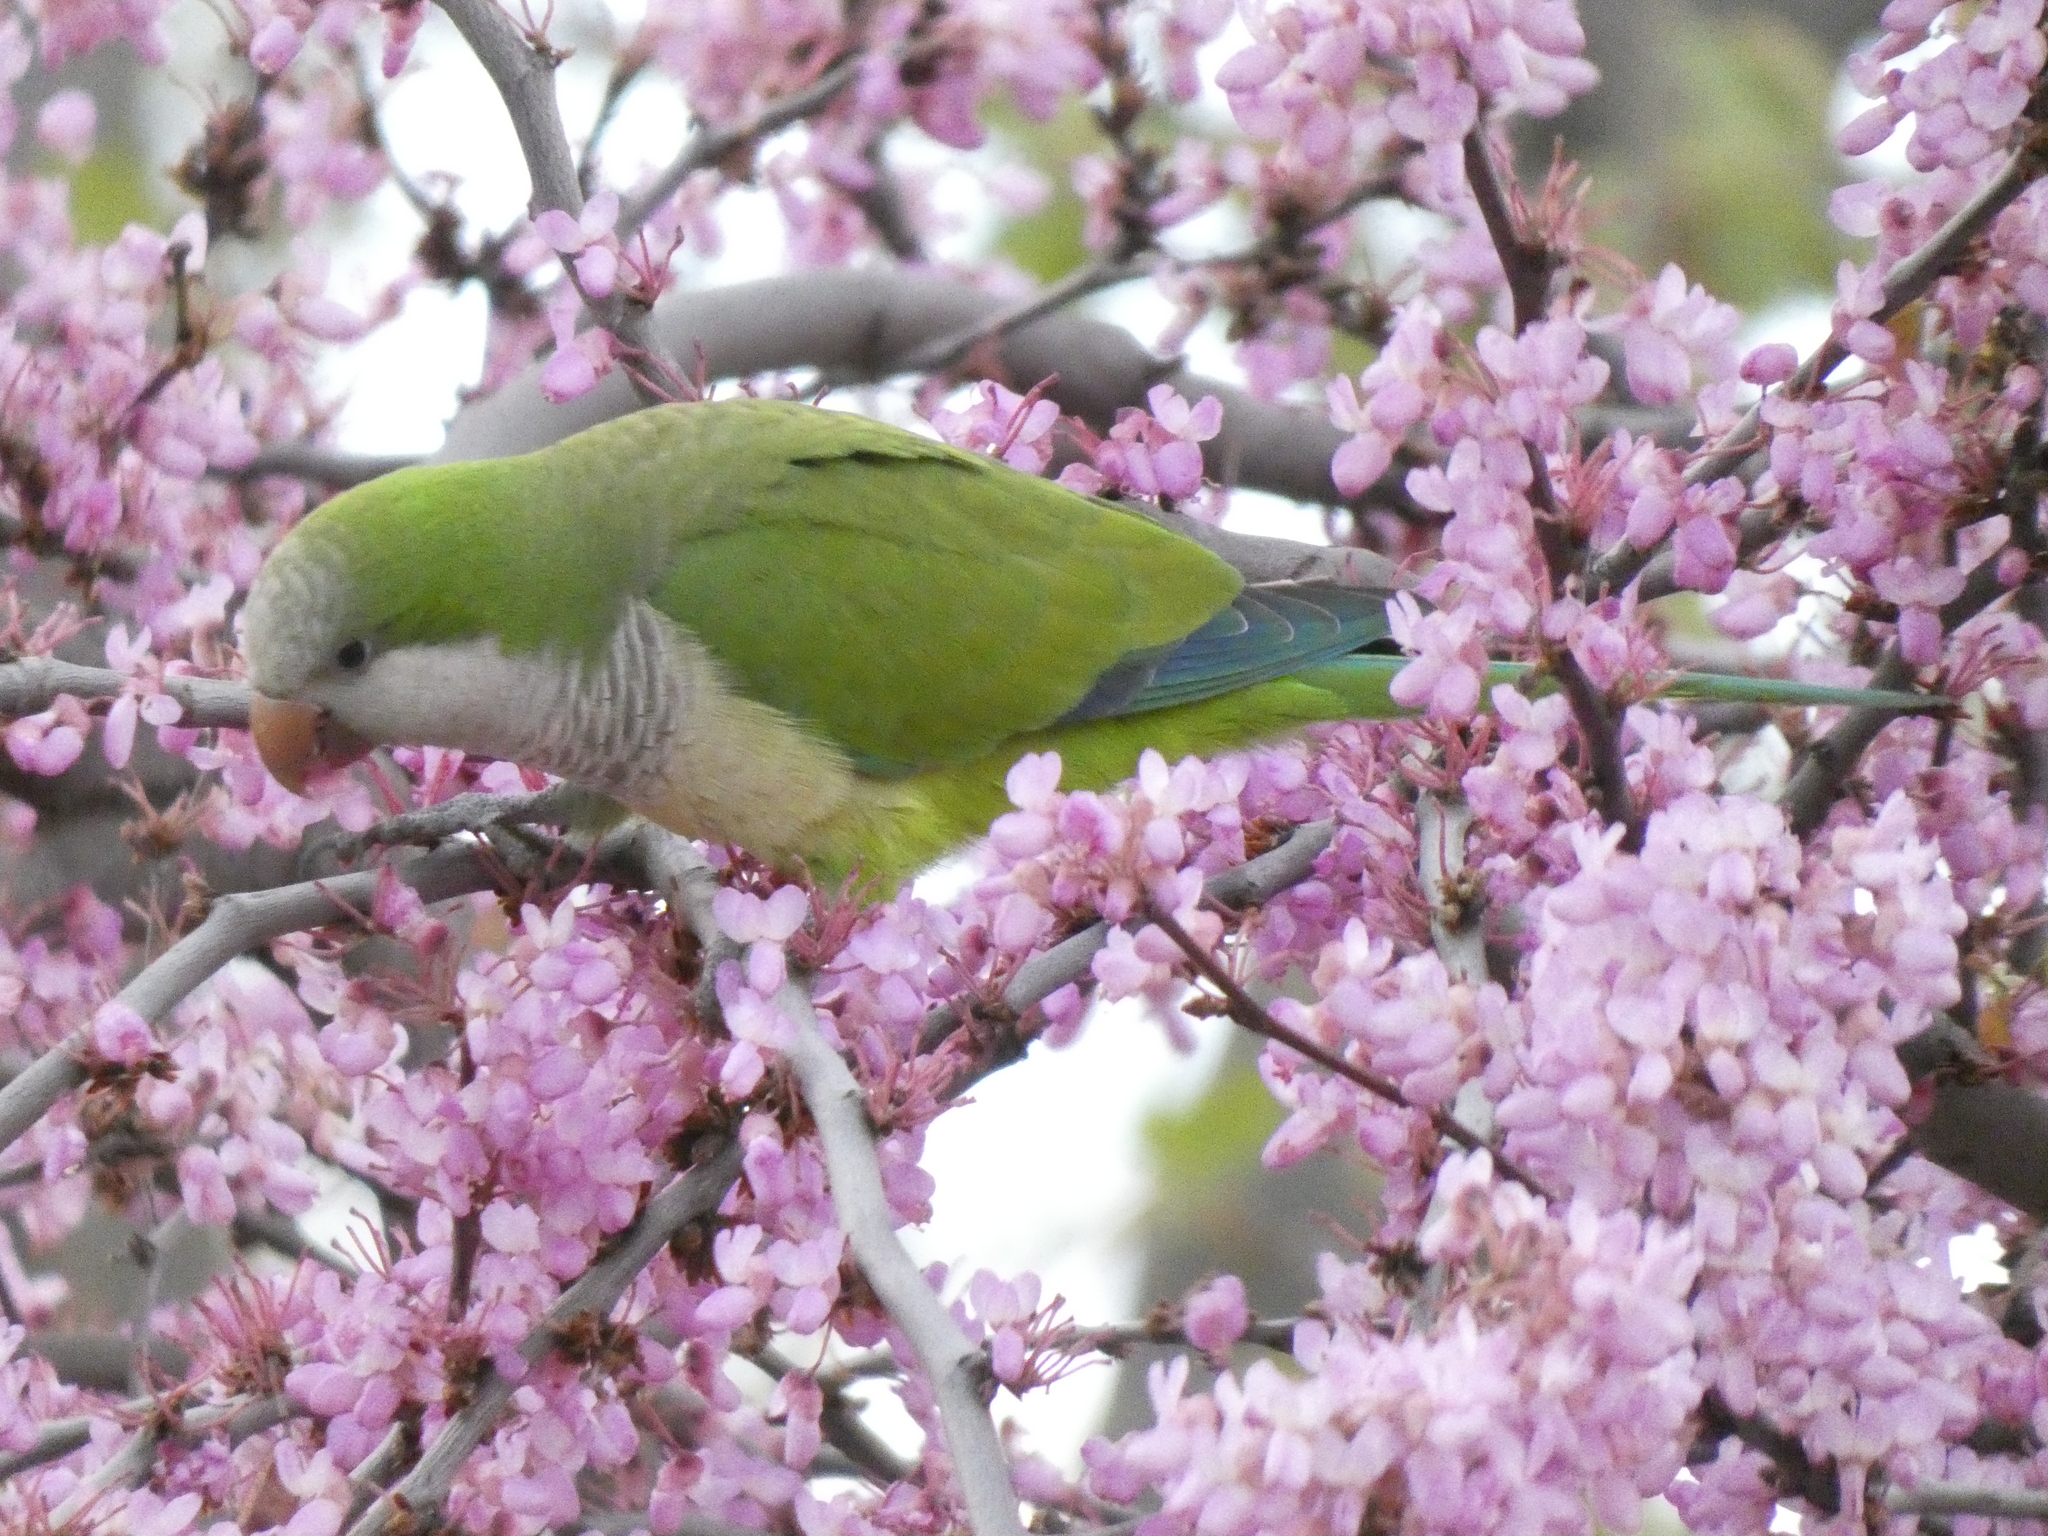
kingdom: Animalia
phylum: Chordata
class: Aves
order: Psittaciformes
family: Psittacidae
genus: Myiopsitta
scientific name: Myiopsitta monachus
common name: Monk parakeet
